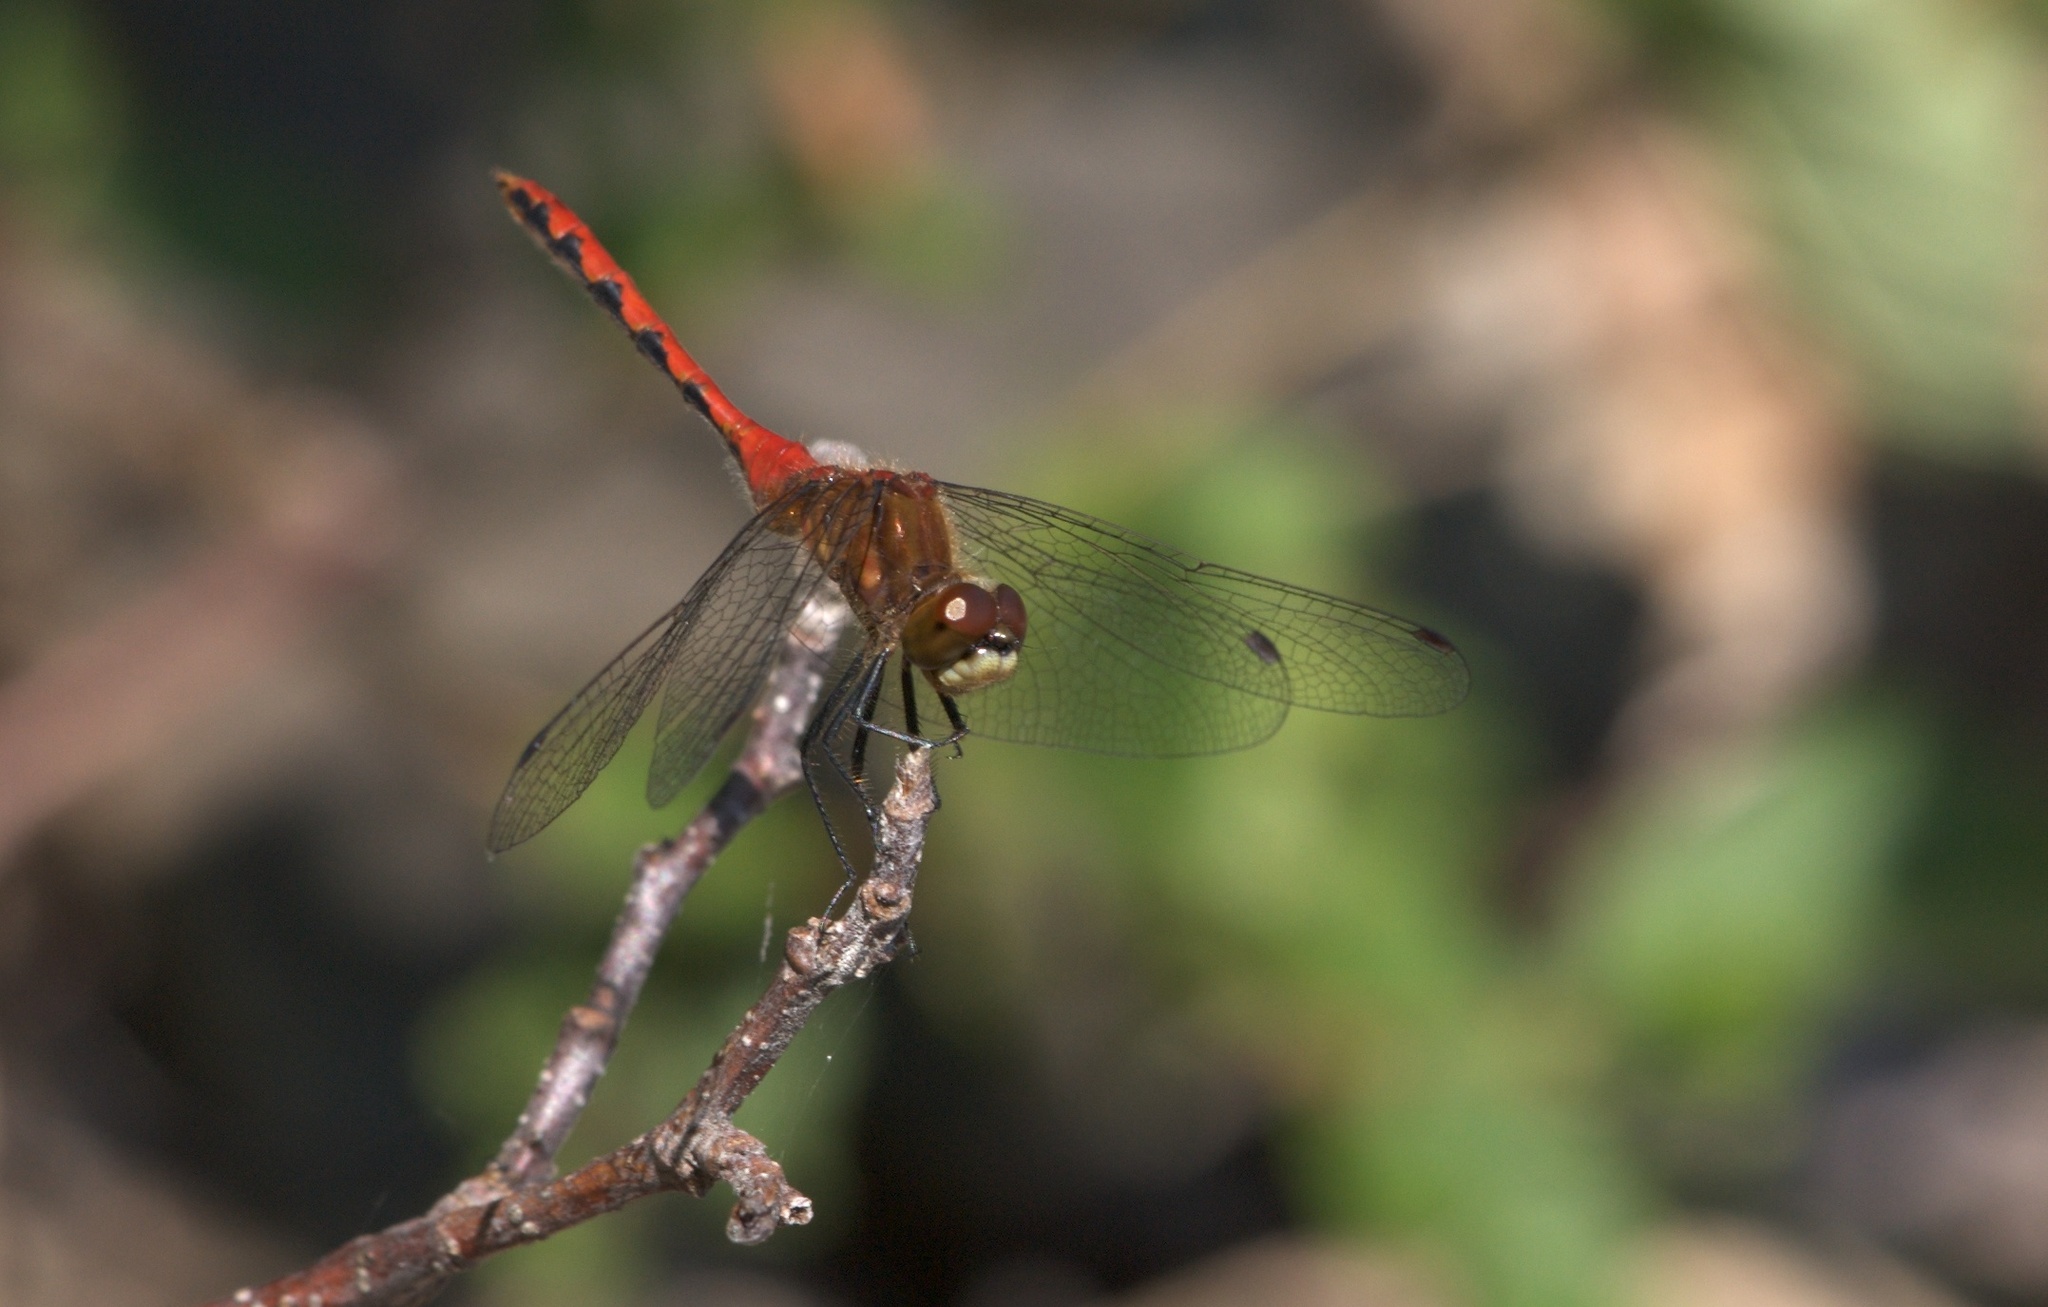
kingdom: Animalia
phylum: Arthropoda
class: Insecta
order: Odonata
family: Libellulidae
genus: Sympetrum
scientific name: Sympetrum obtrusum
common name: White-faced meadowhawk
